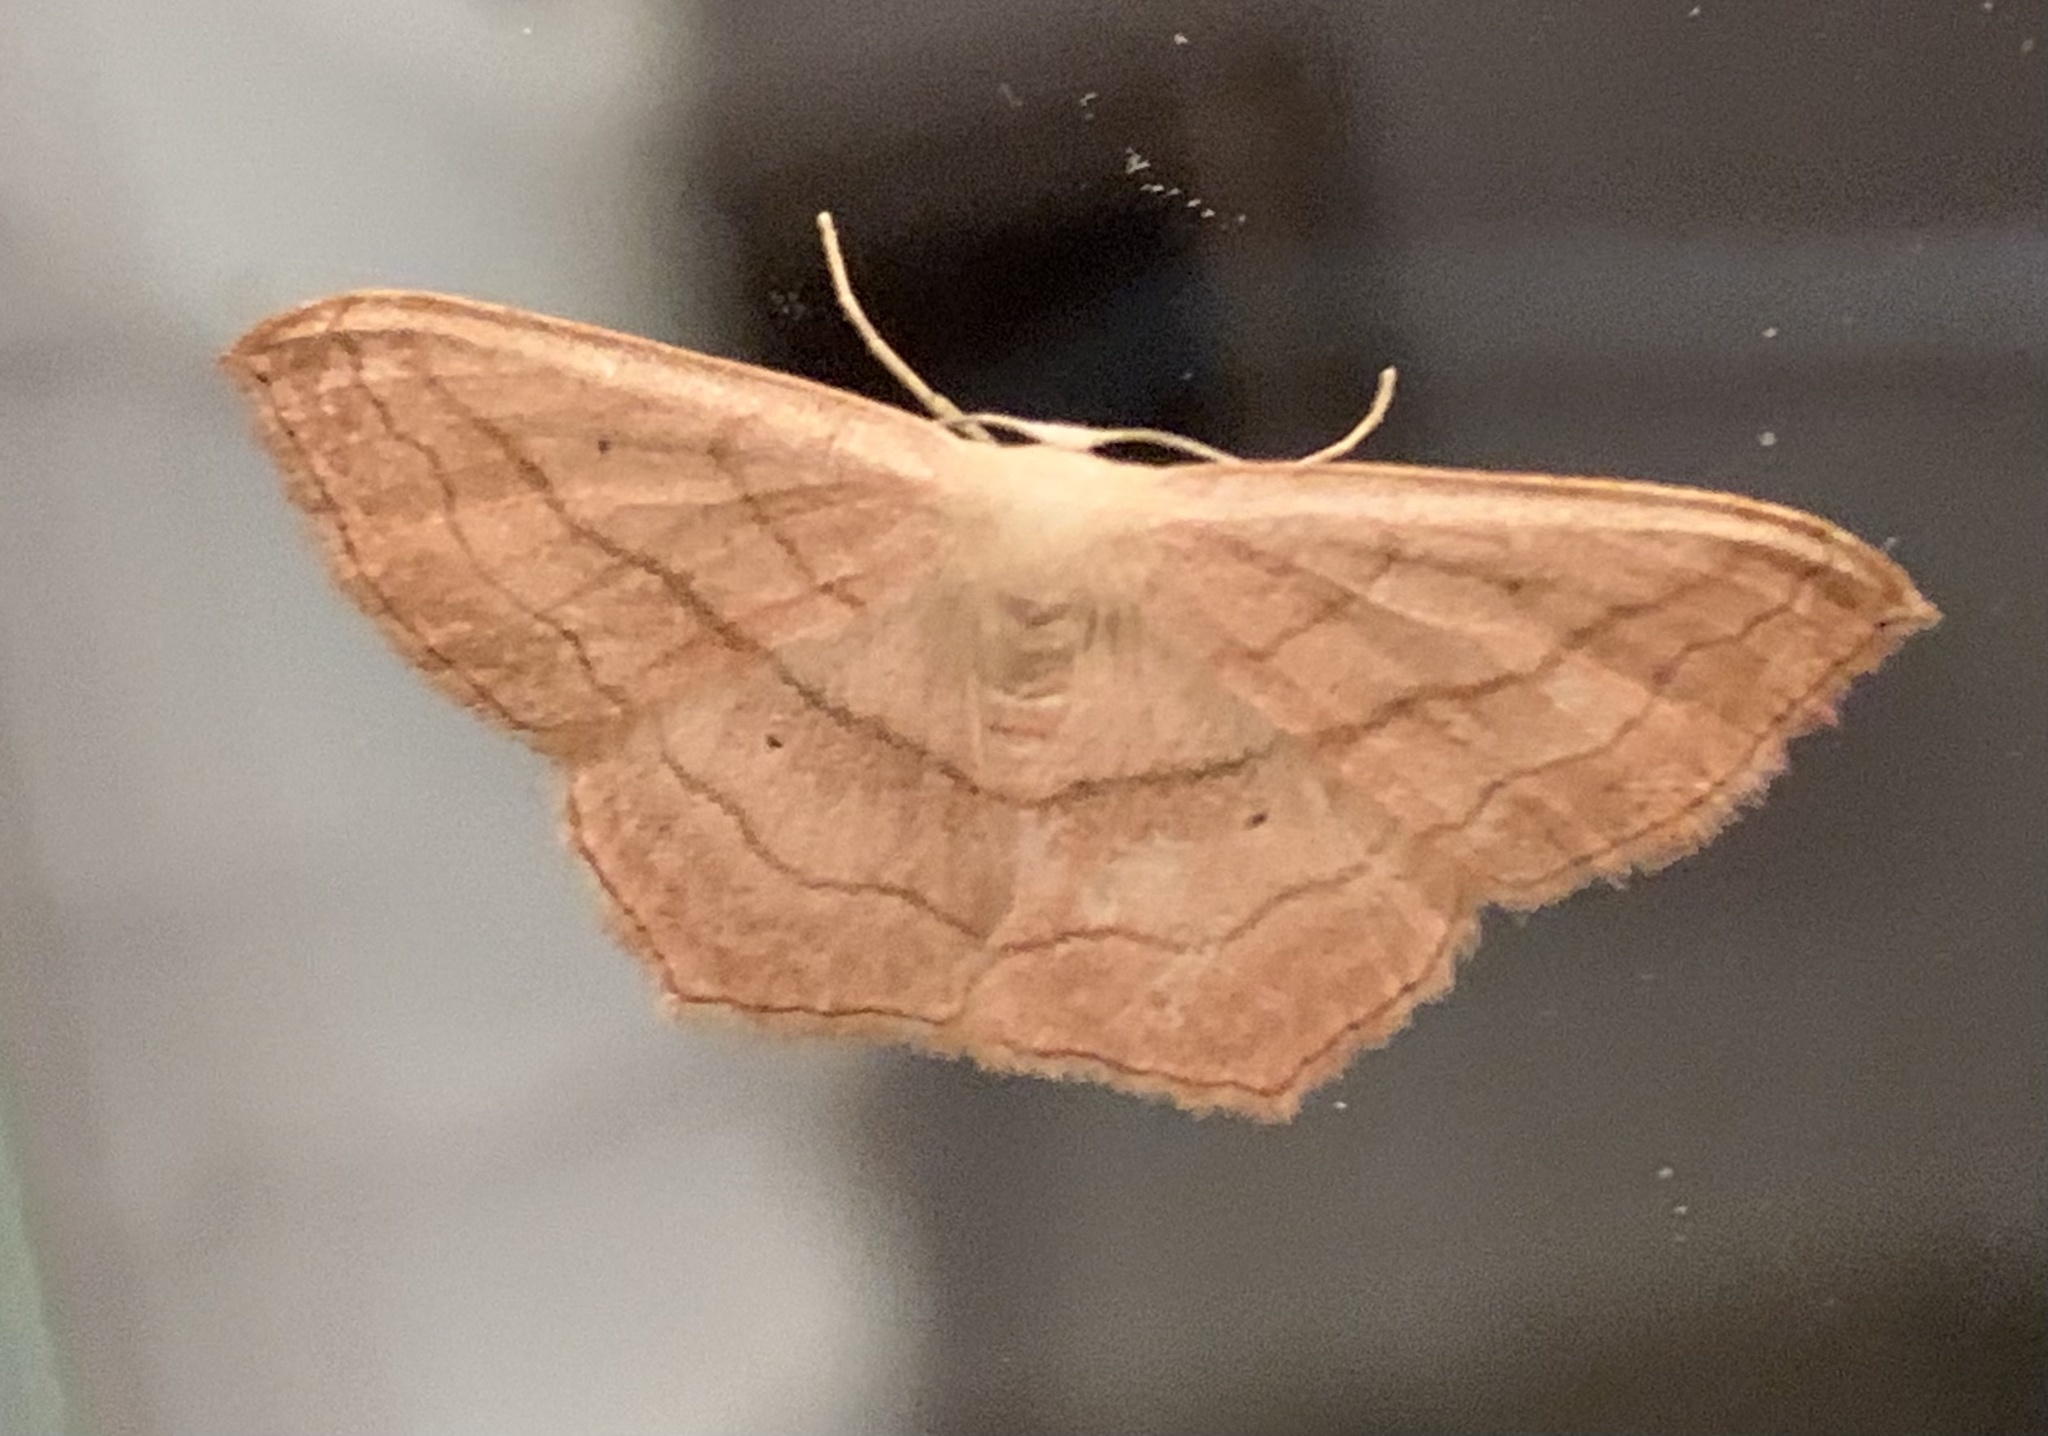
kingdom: Animalia
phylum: Arthropoda
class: Insecta
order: Lepidoptera
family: Geometridae
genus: Scopula
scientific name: Scopula imitaria
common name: Small blood-vein
